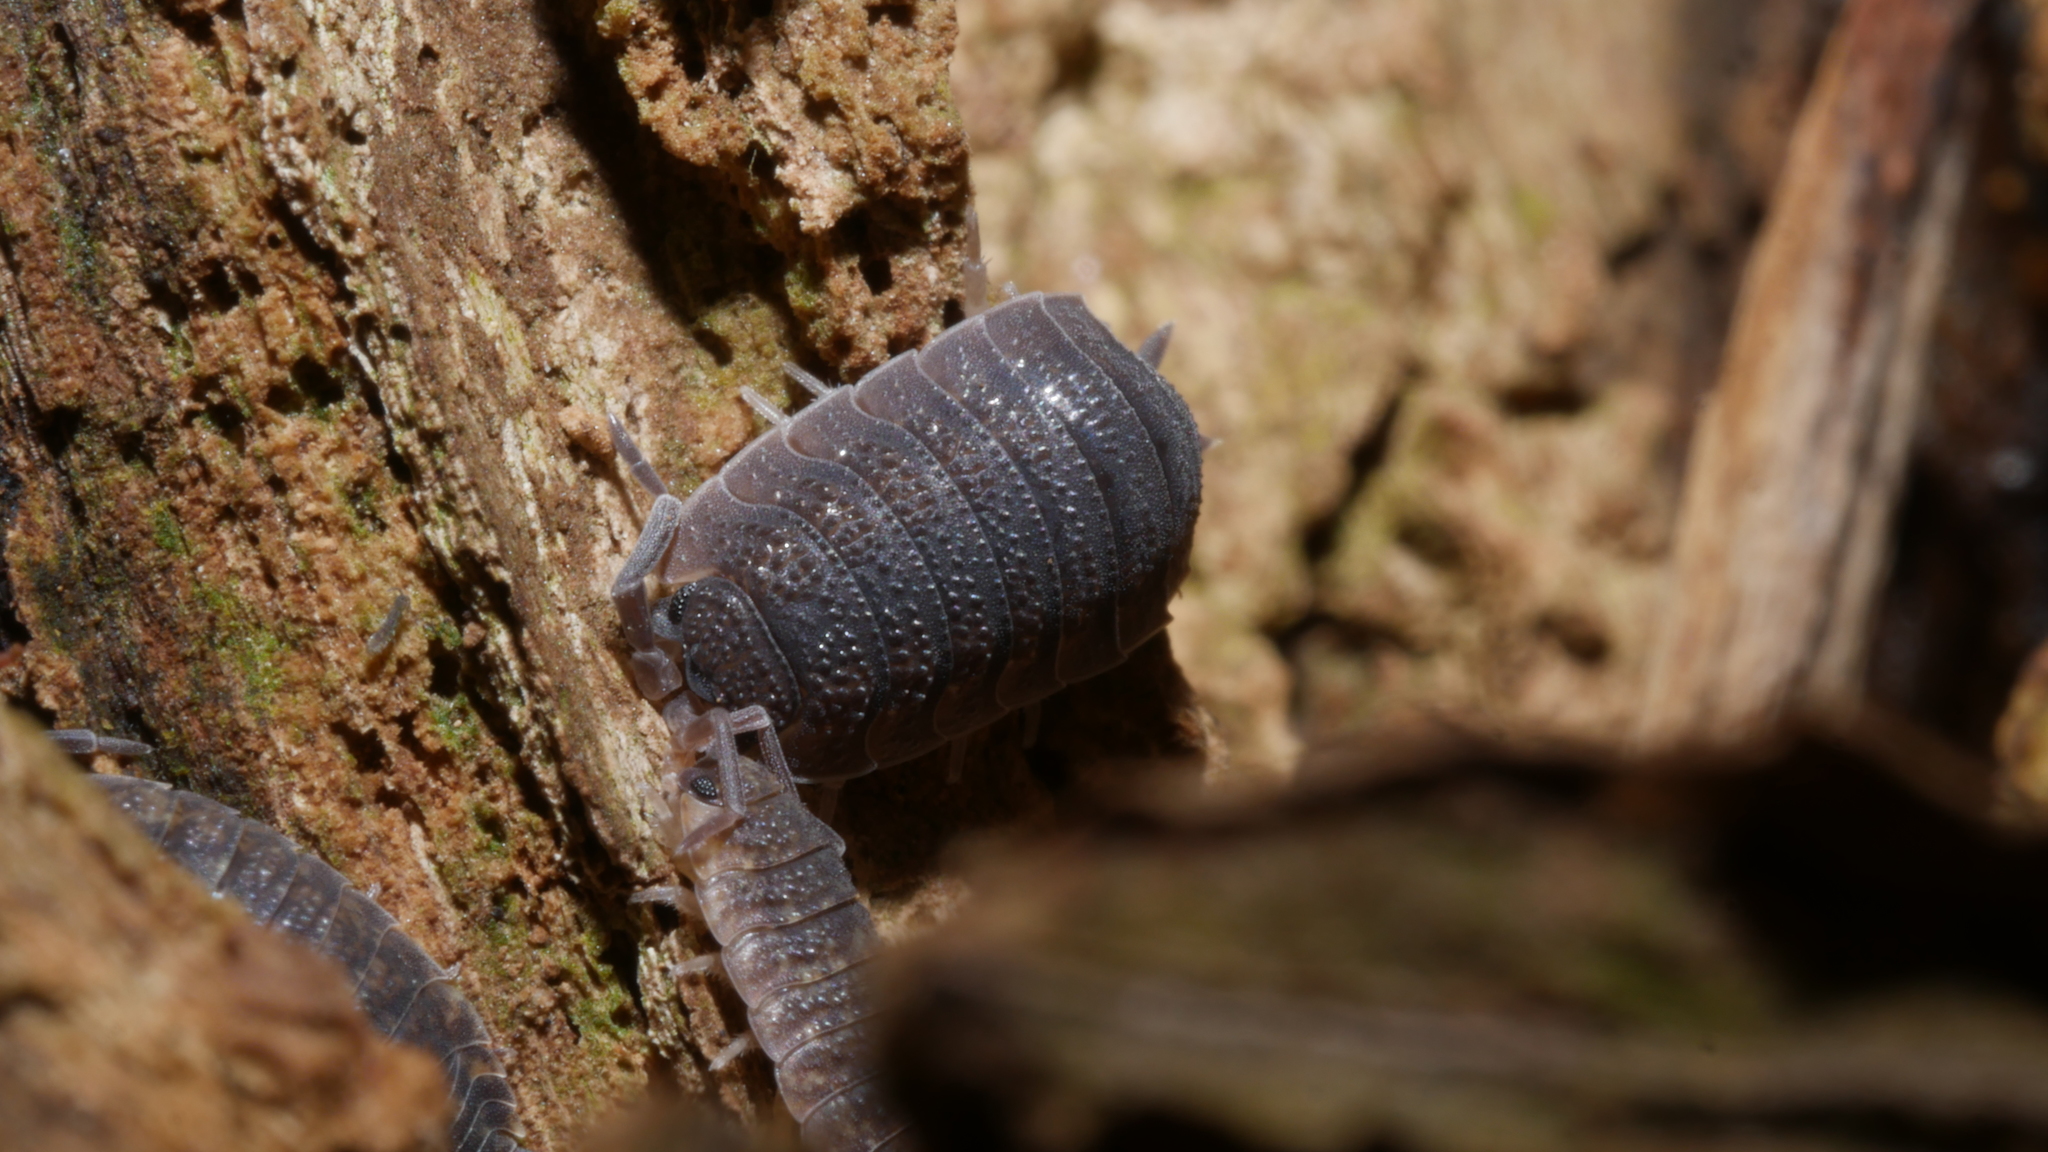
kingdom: Animalia
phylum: Arthropoda
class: Malacostraca
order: Isopoda
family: Porcellionidae
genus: Porcellio
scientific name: Porcellio scaber
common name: Common rough woodlouse
